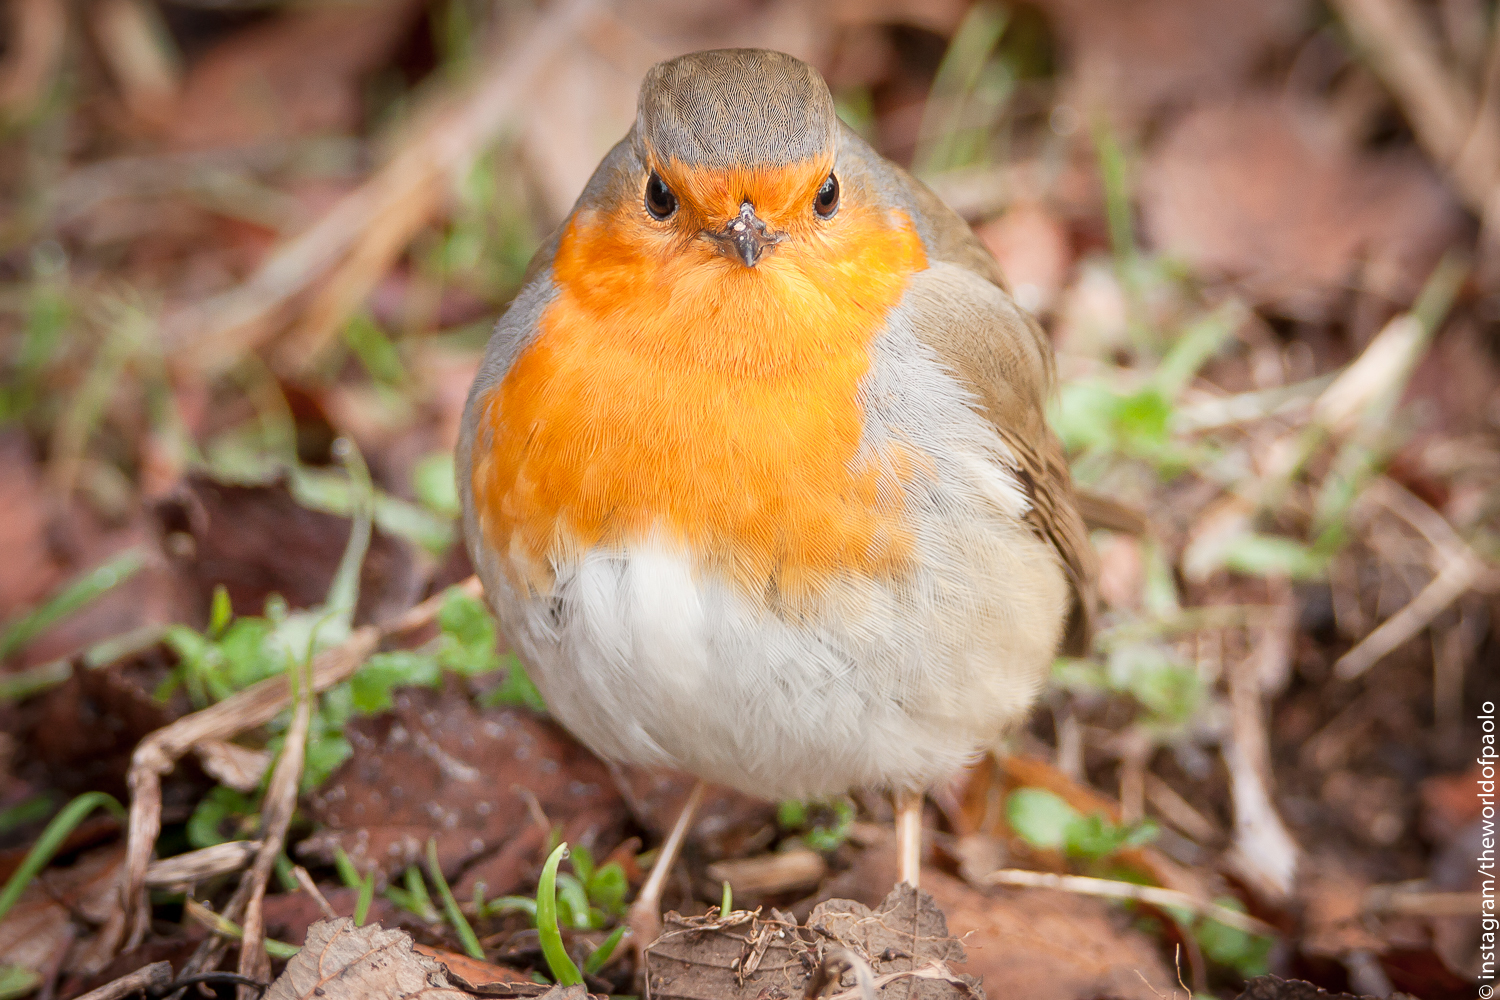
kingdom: Animalia
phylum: Chordata
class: Aves
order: Passeriformes
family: Muscicapidae
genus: Erithacus
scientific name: Erithacus rubecula
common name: European robin
